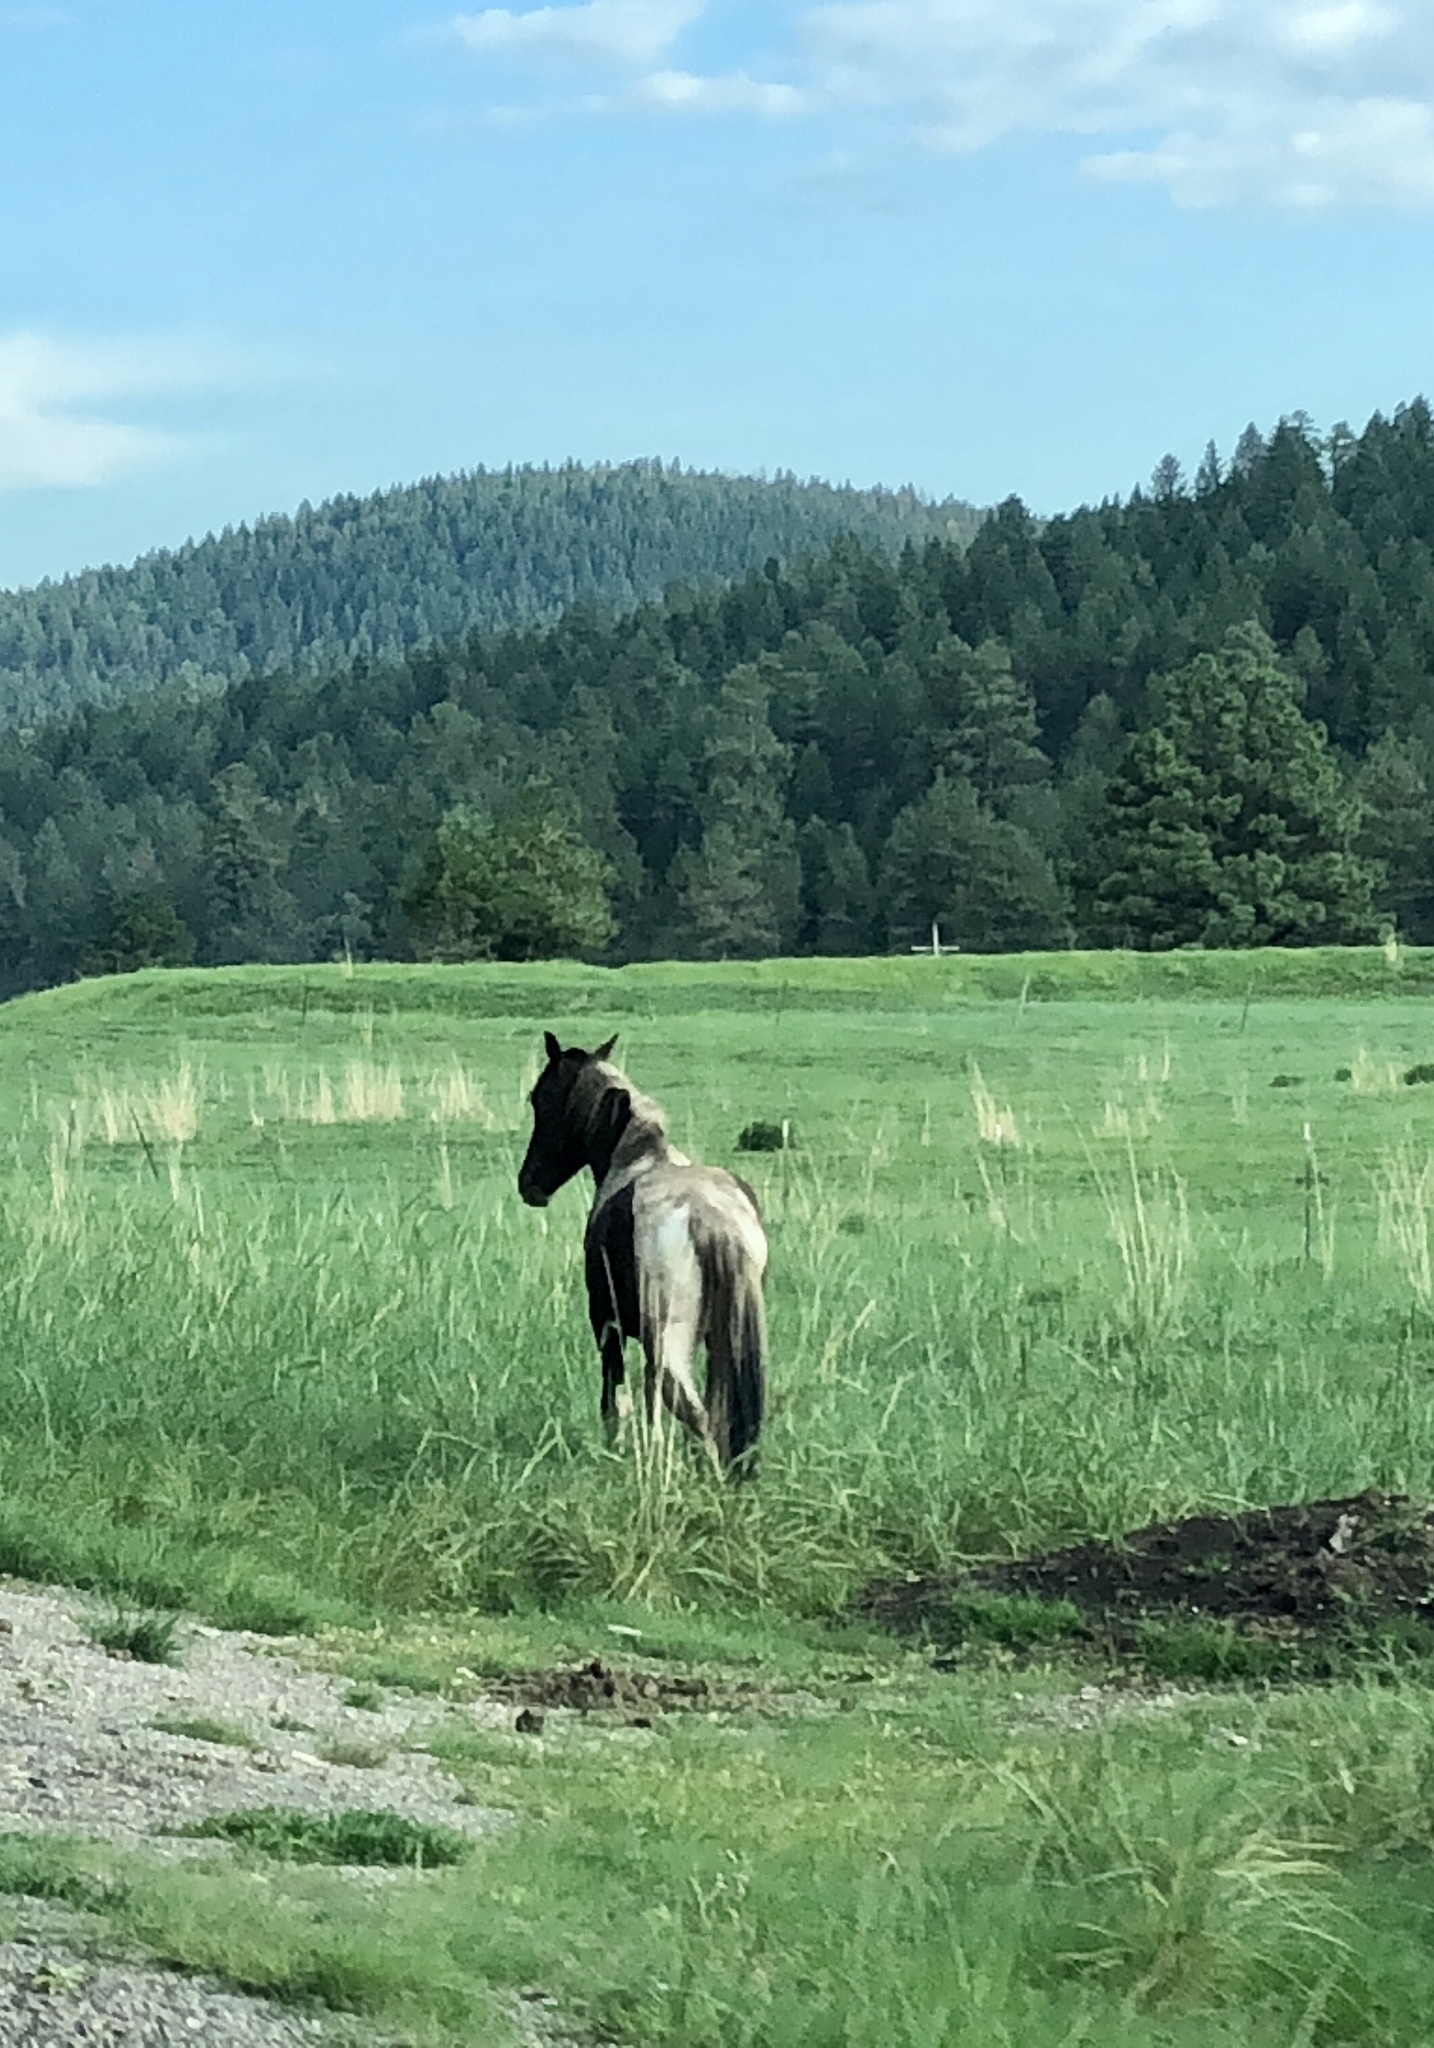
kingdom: Animalia
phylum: Chordata
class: Mammalia
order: Perissodactyla
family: Equidae
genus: Equus
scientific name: Equus caballus
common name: Horse
